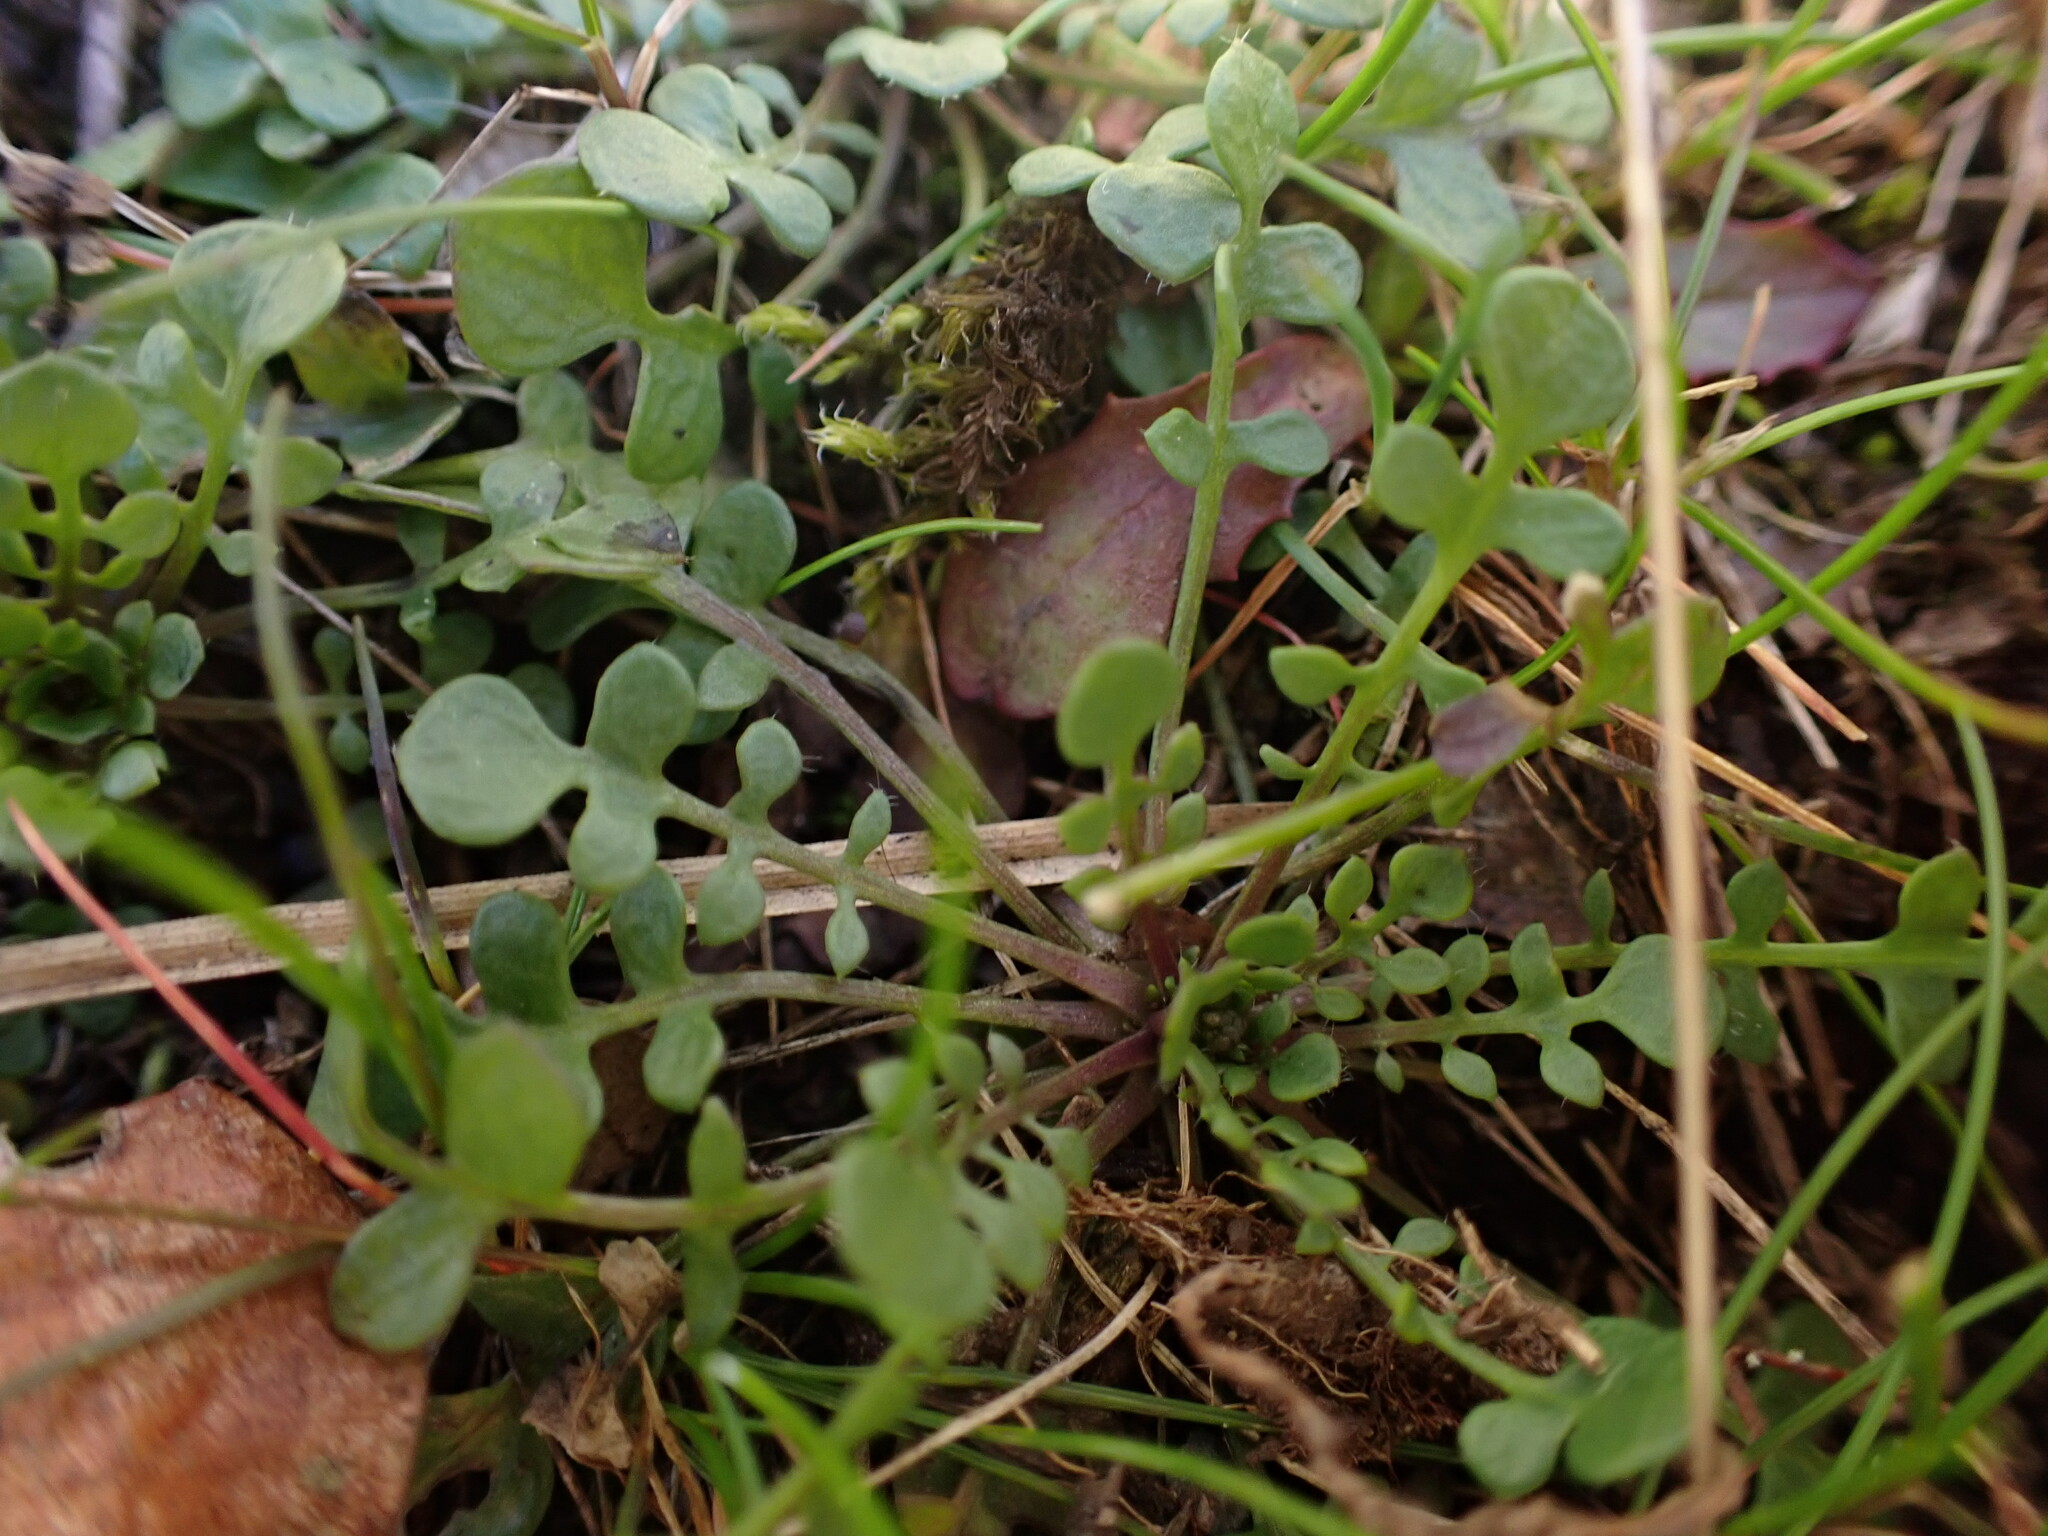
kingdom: Plantae
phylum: Tracheophyta
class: Magnoliopsida
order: Brassicales
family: Brassicaceae
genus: Teesdalia
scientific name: Teesdalia nudicaulis
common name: Shepherd's cress
